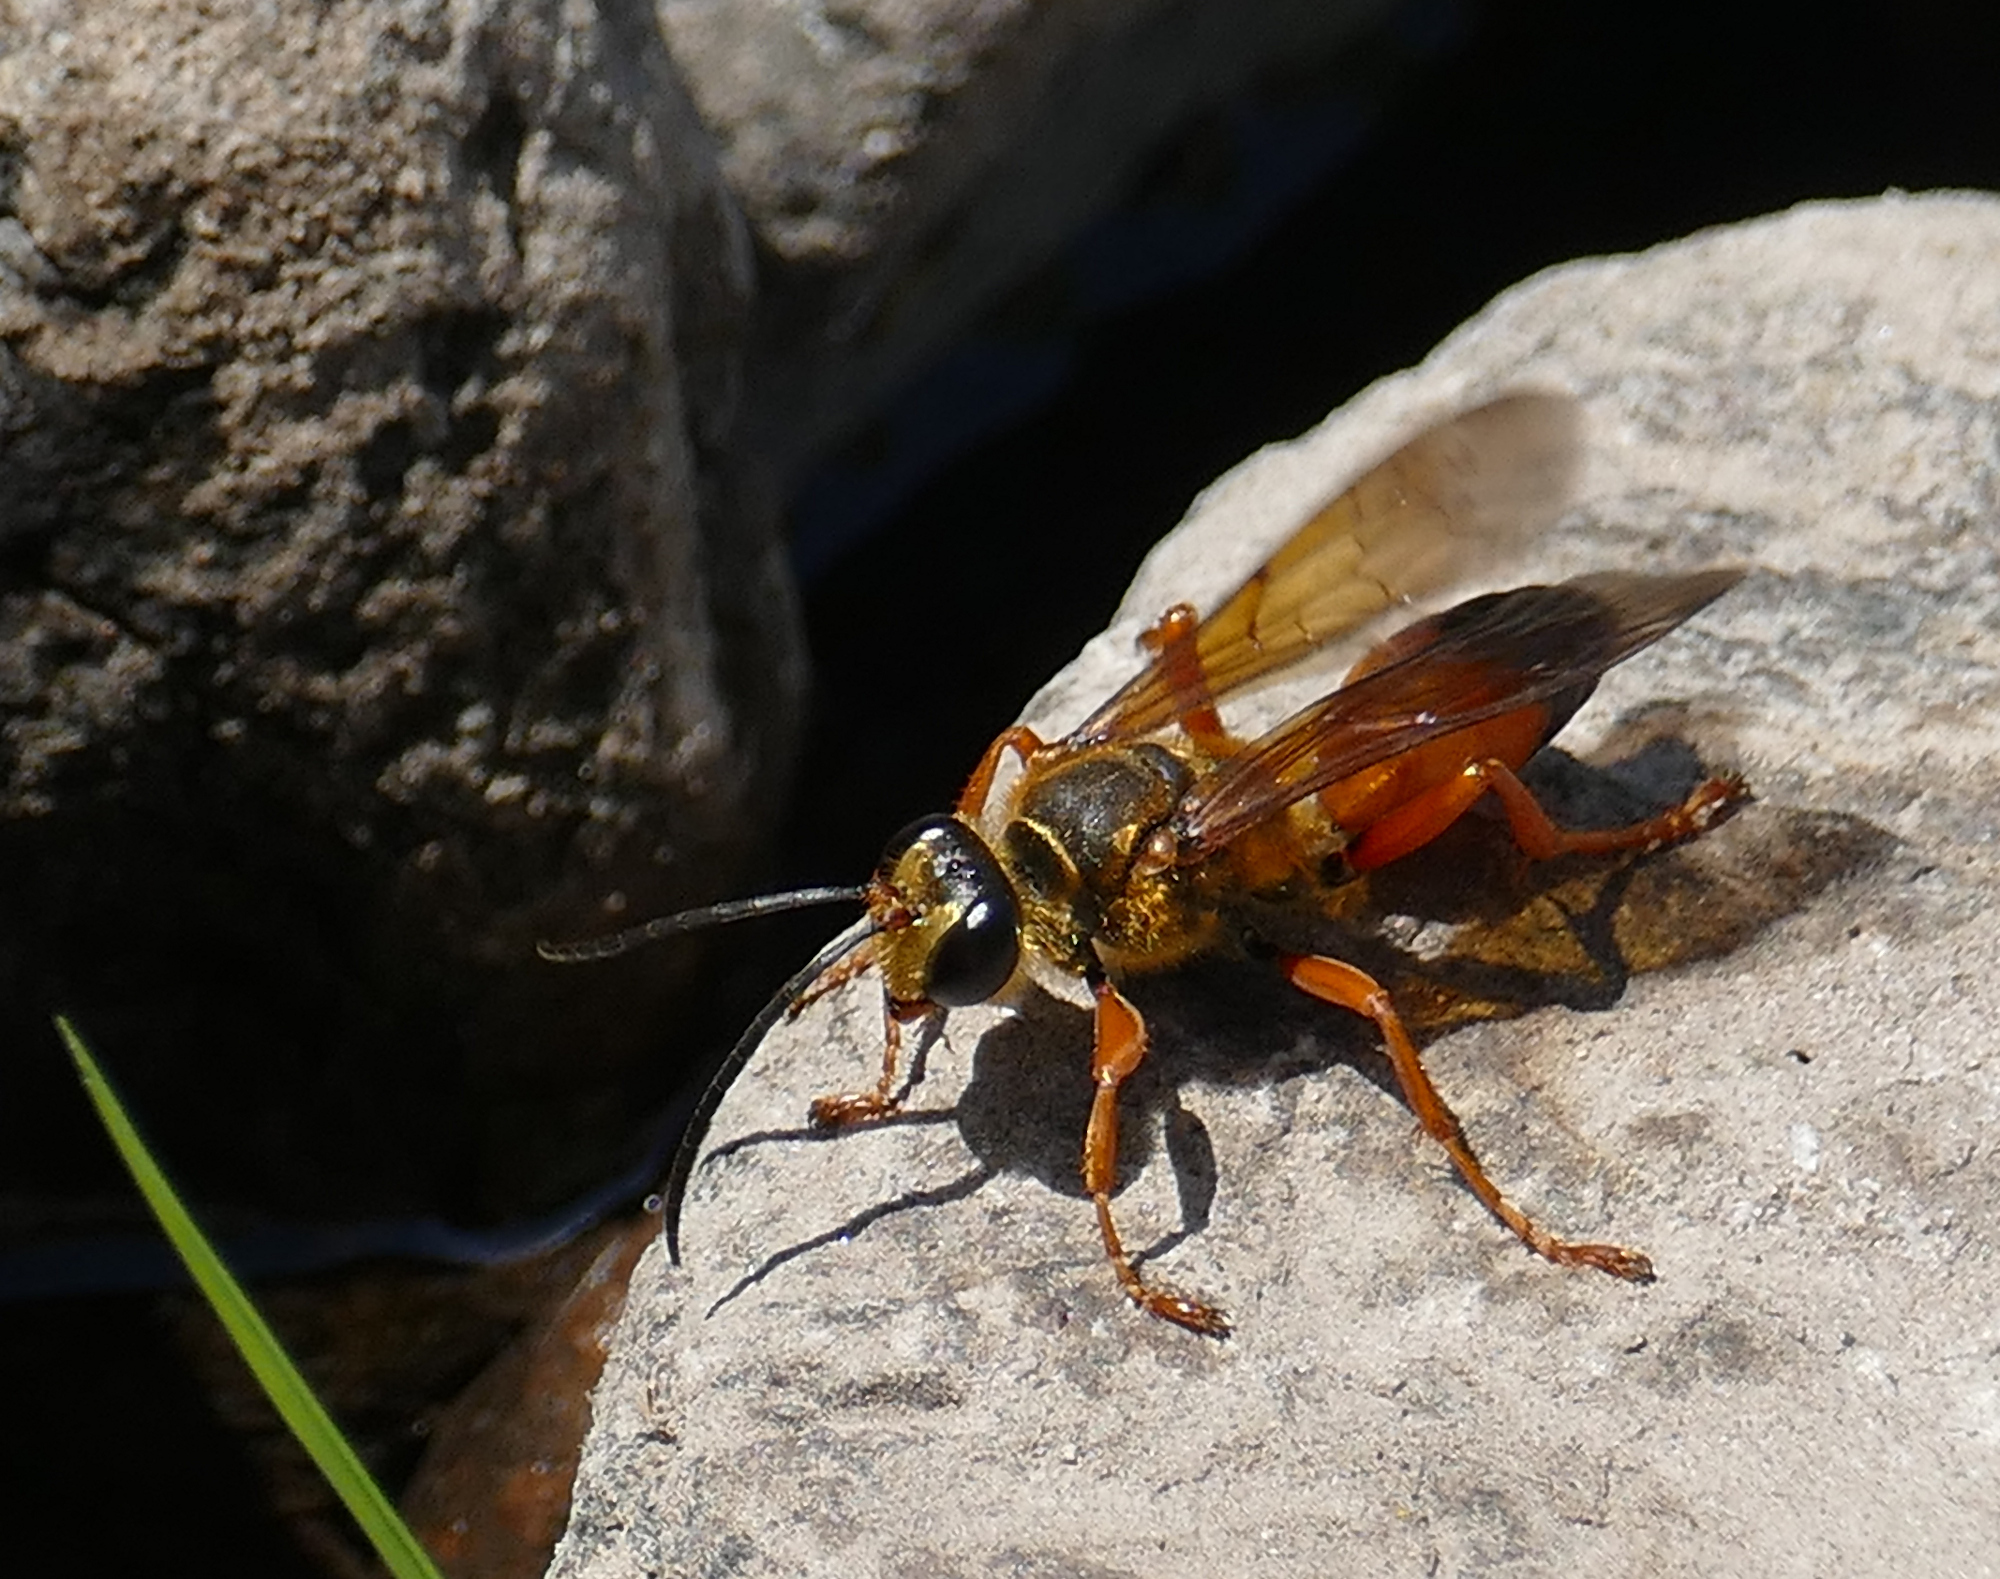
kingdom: Animalia
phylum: Arthropoda
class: Insecta
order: Hymenoptera
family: Sphecidae
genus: Sphex
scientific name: Sphex ichneumoneus
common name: Great golden digger wasp
